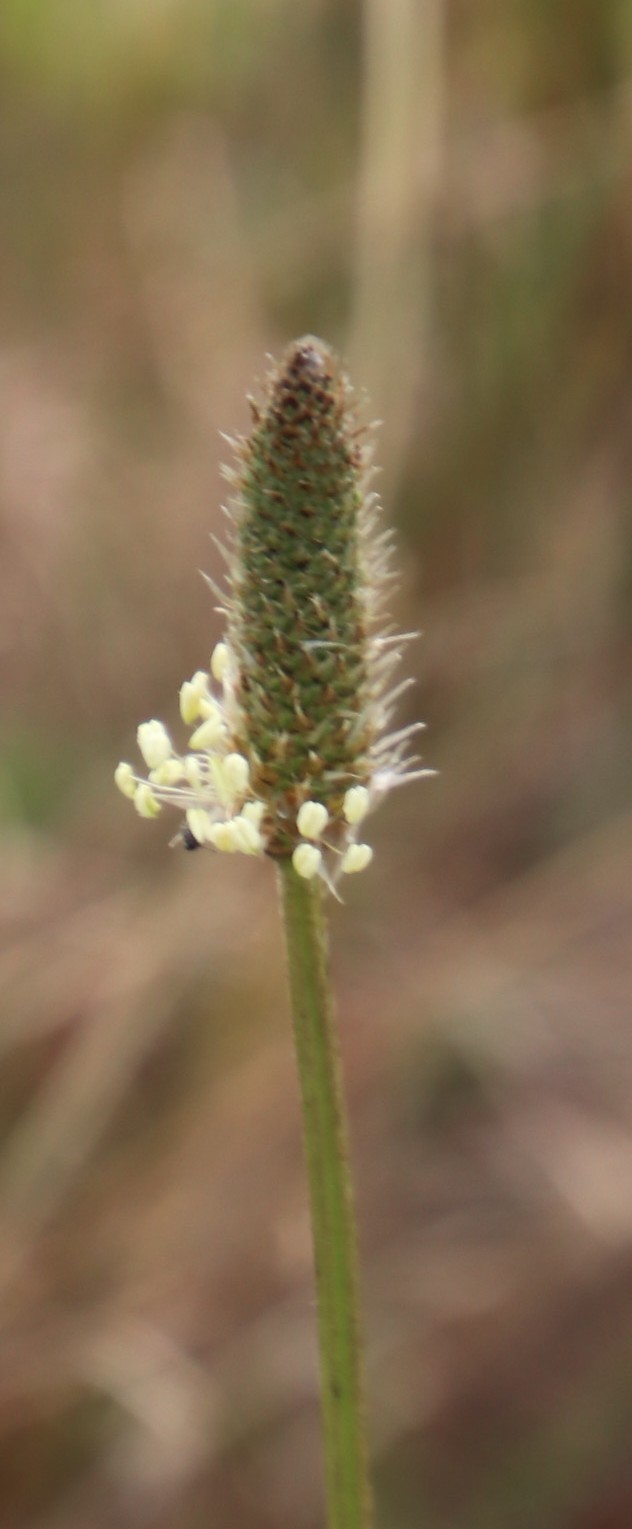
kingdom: Plantae
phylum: Tracheophyta
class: Magnoliopsida
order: Lamiales
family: Plantaginaceae
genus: Plantago
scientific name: Plantago lanceolata
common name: Ribwort plantain
